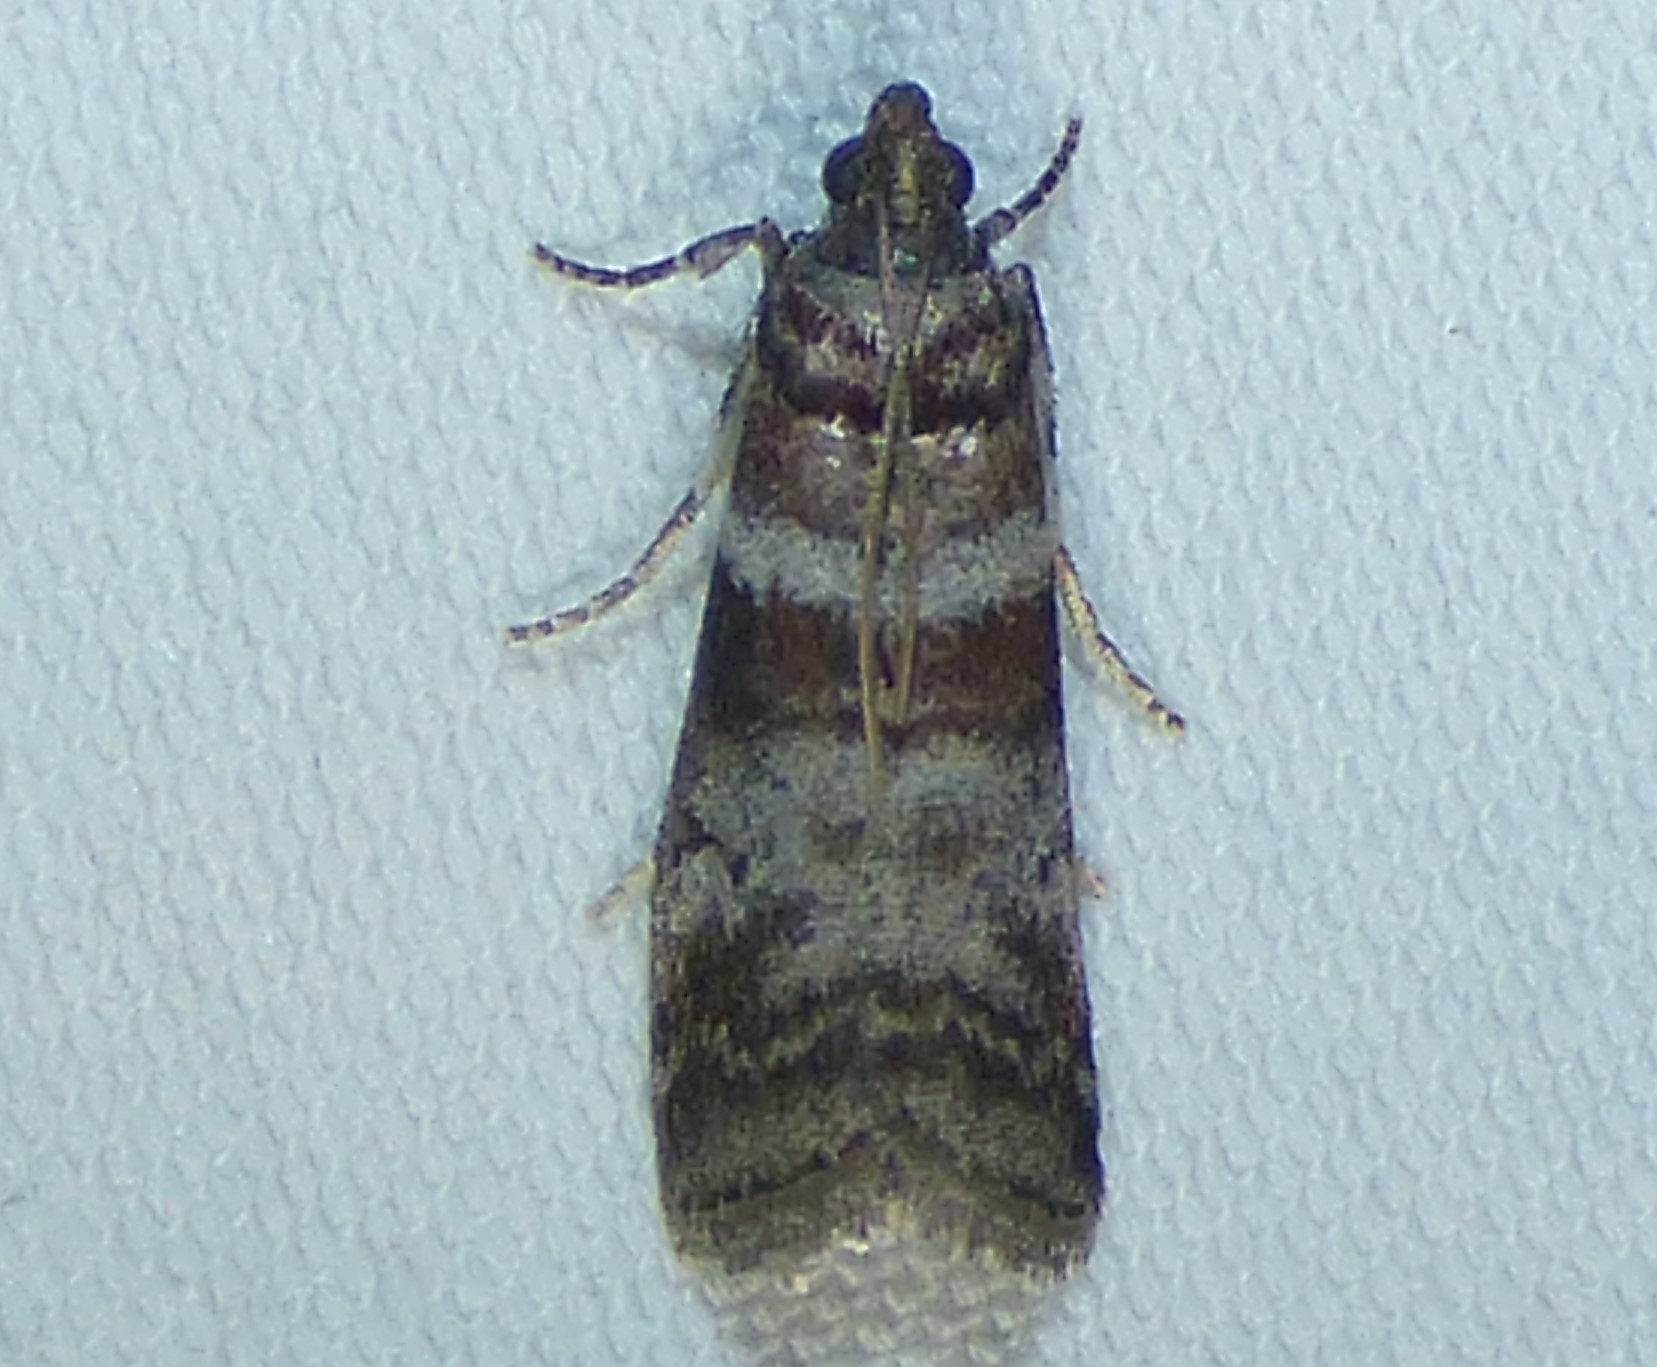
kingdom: Animalia
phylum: Arthropoda
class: Insecta
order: Lepidoptera
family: Pyralidae
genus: Sciota
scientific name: Sciota uvinella
